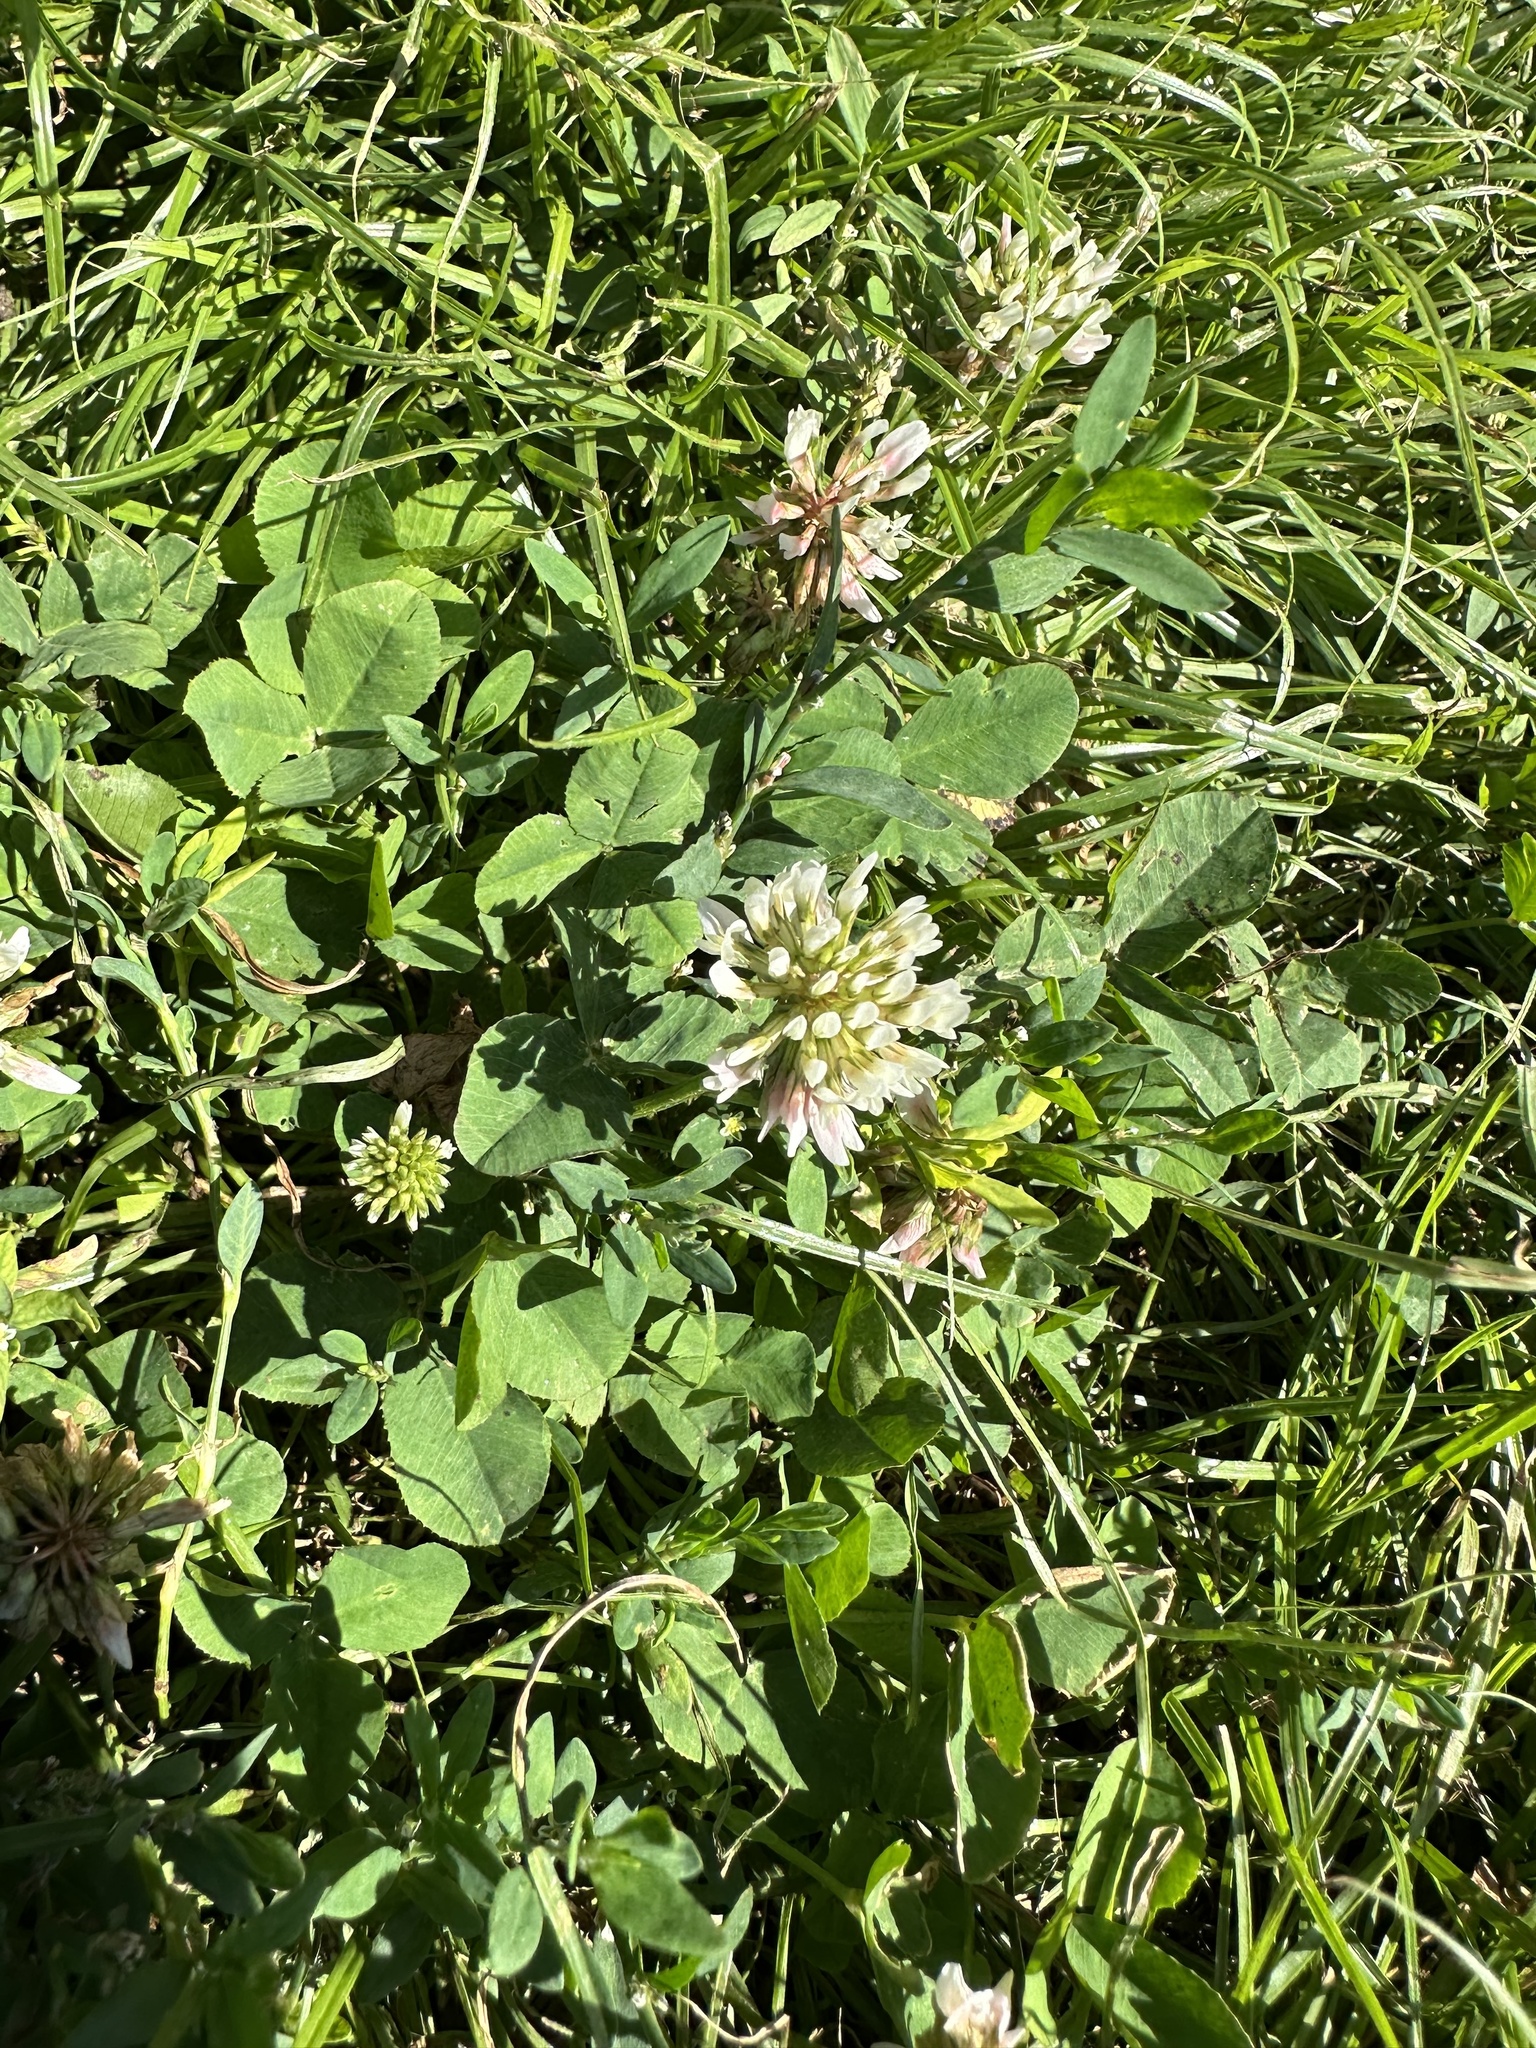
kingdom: Plantae
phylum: Tracheophyta
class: Magnoliopsida
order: Fabales
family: Fabaceae
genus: Trifolium
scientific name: Trifolium repens
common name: White clover
